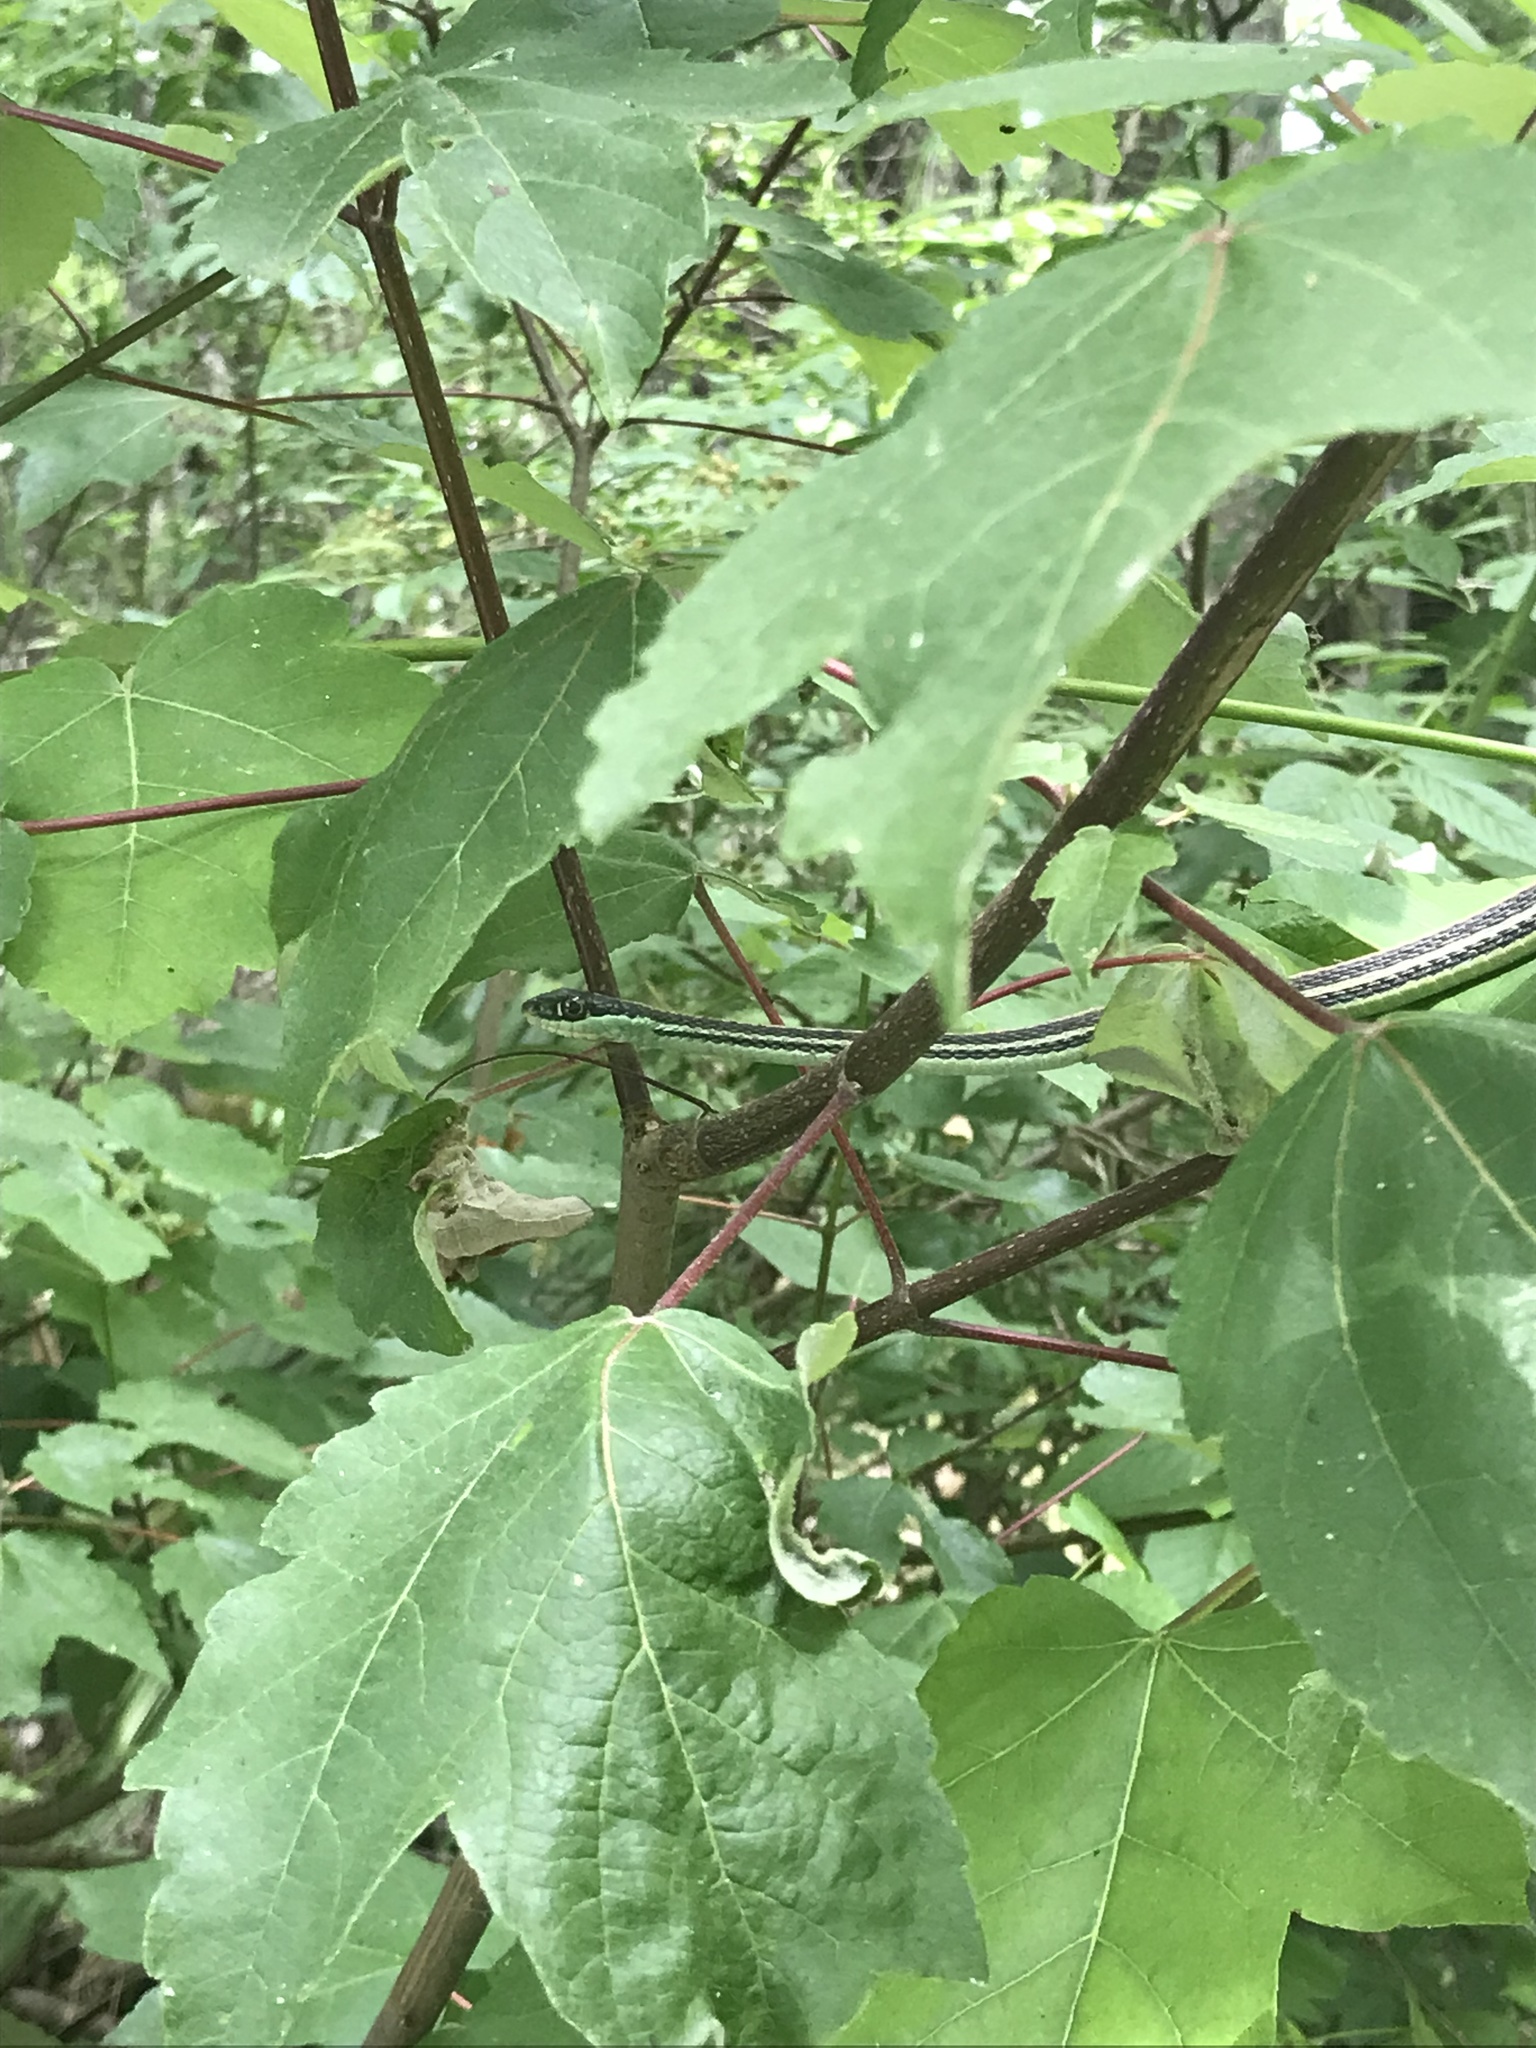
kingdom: Animalia
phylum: Chordata
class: Squamata
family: Colubridae
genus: Thamnophis
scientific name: Thamnophis proximus
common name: Western ribbon snake
